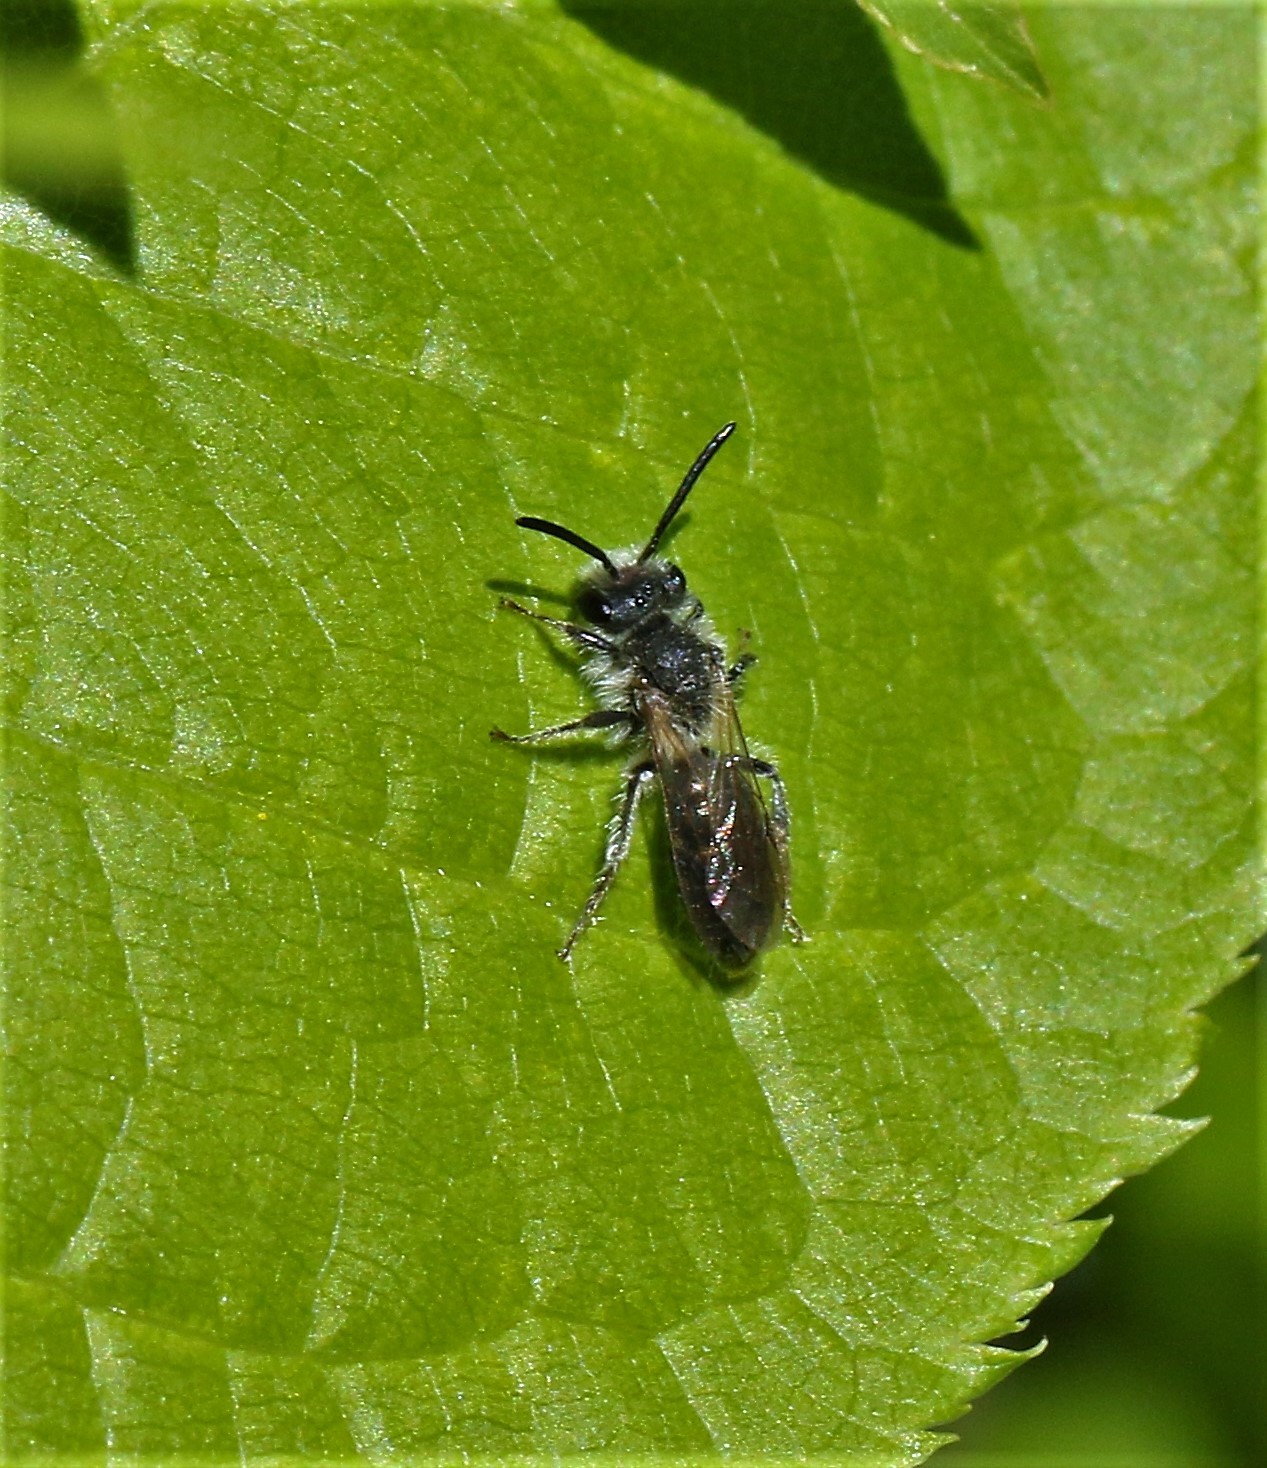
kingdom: Animalia
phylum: Arthropoda
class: Insecta
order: Hymenoptera
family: Andrenidae
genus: Andrena
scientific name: Andrena
